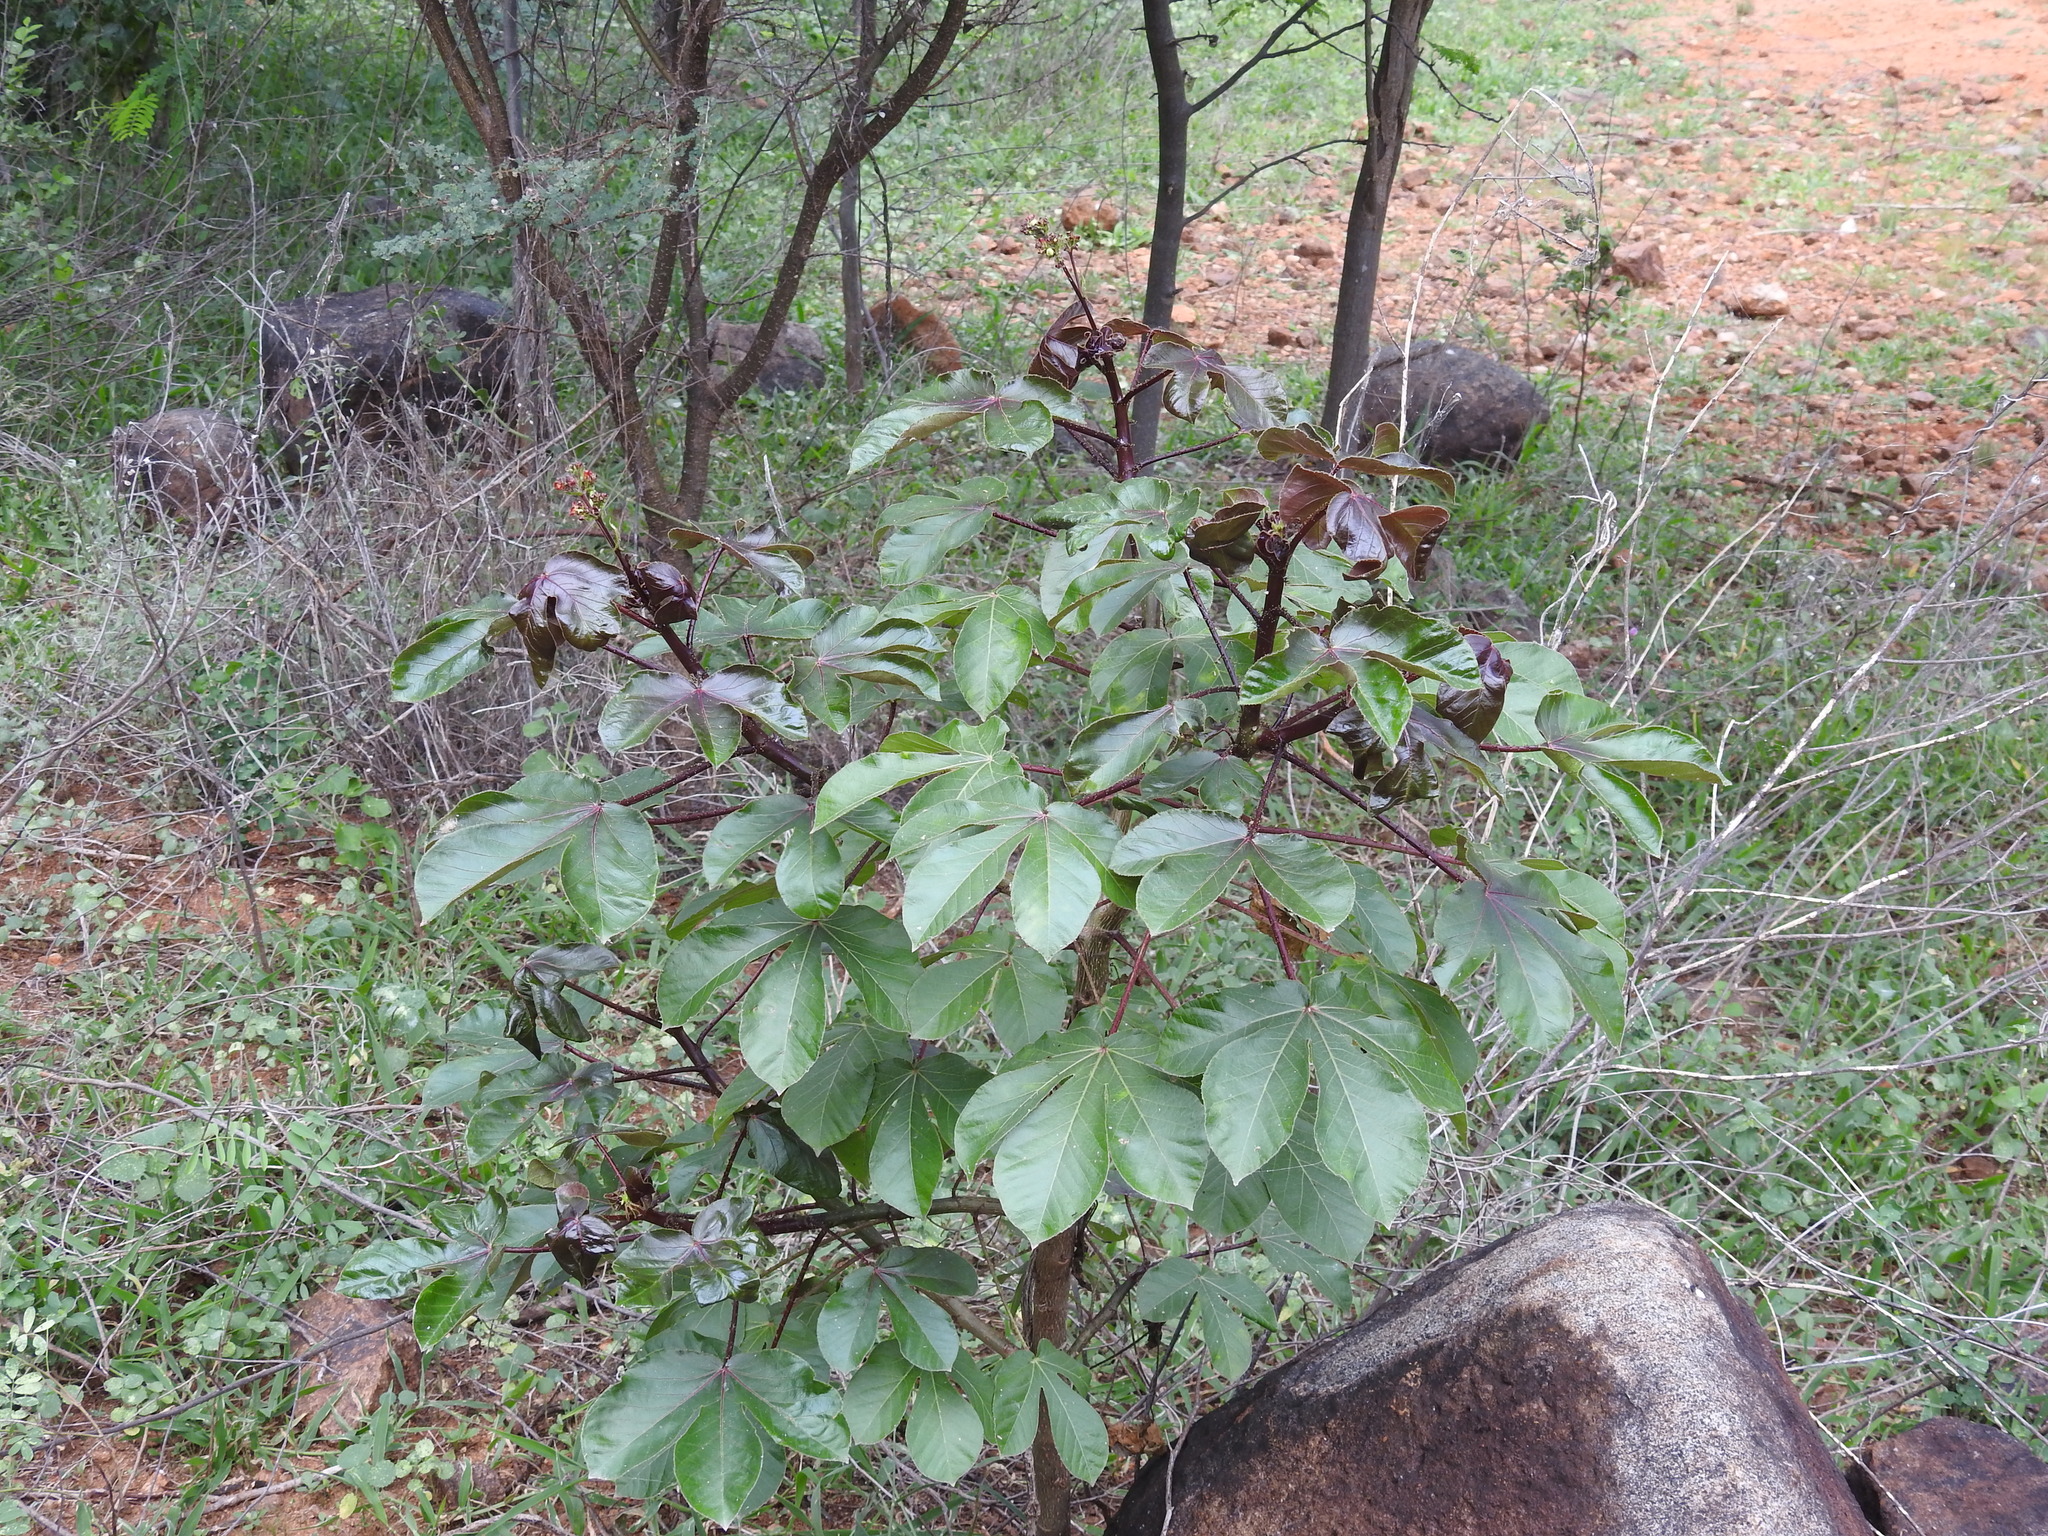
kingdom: Plantae
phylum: Tracheophyta
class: Magnoliopsida
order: Malpighiales
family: Euphorbiaceae
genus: Jatropha
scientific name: Jatropha gossypiifolia
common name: Bellyache bush
